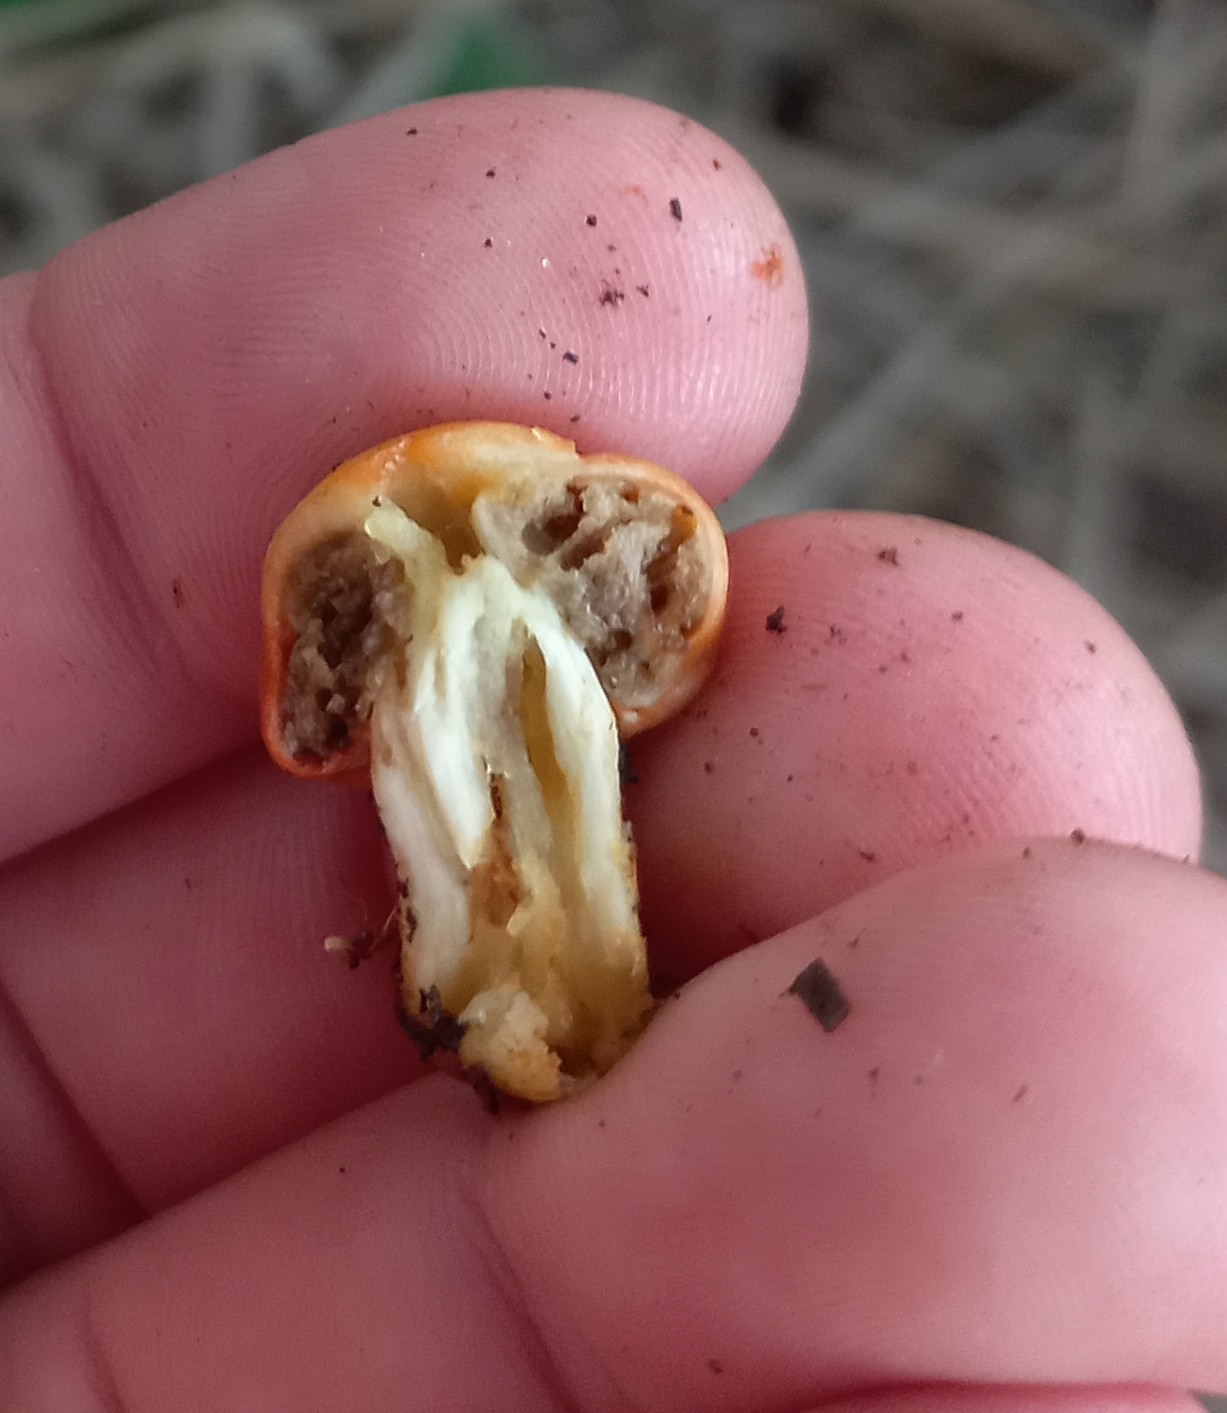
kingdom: Fungi
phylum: Basidiomycota
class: Agaricomycetes
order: Agaricales
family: Strophariaceae
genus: Leratiomyces
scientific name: Leratiomyces erythrocephalus
